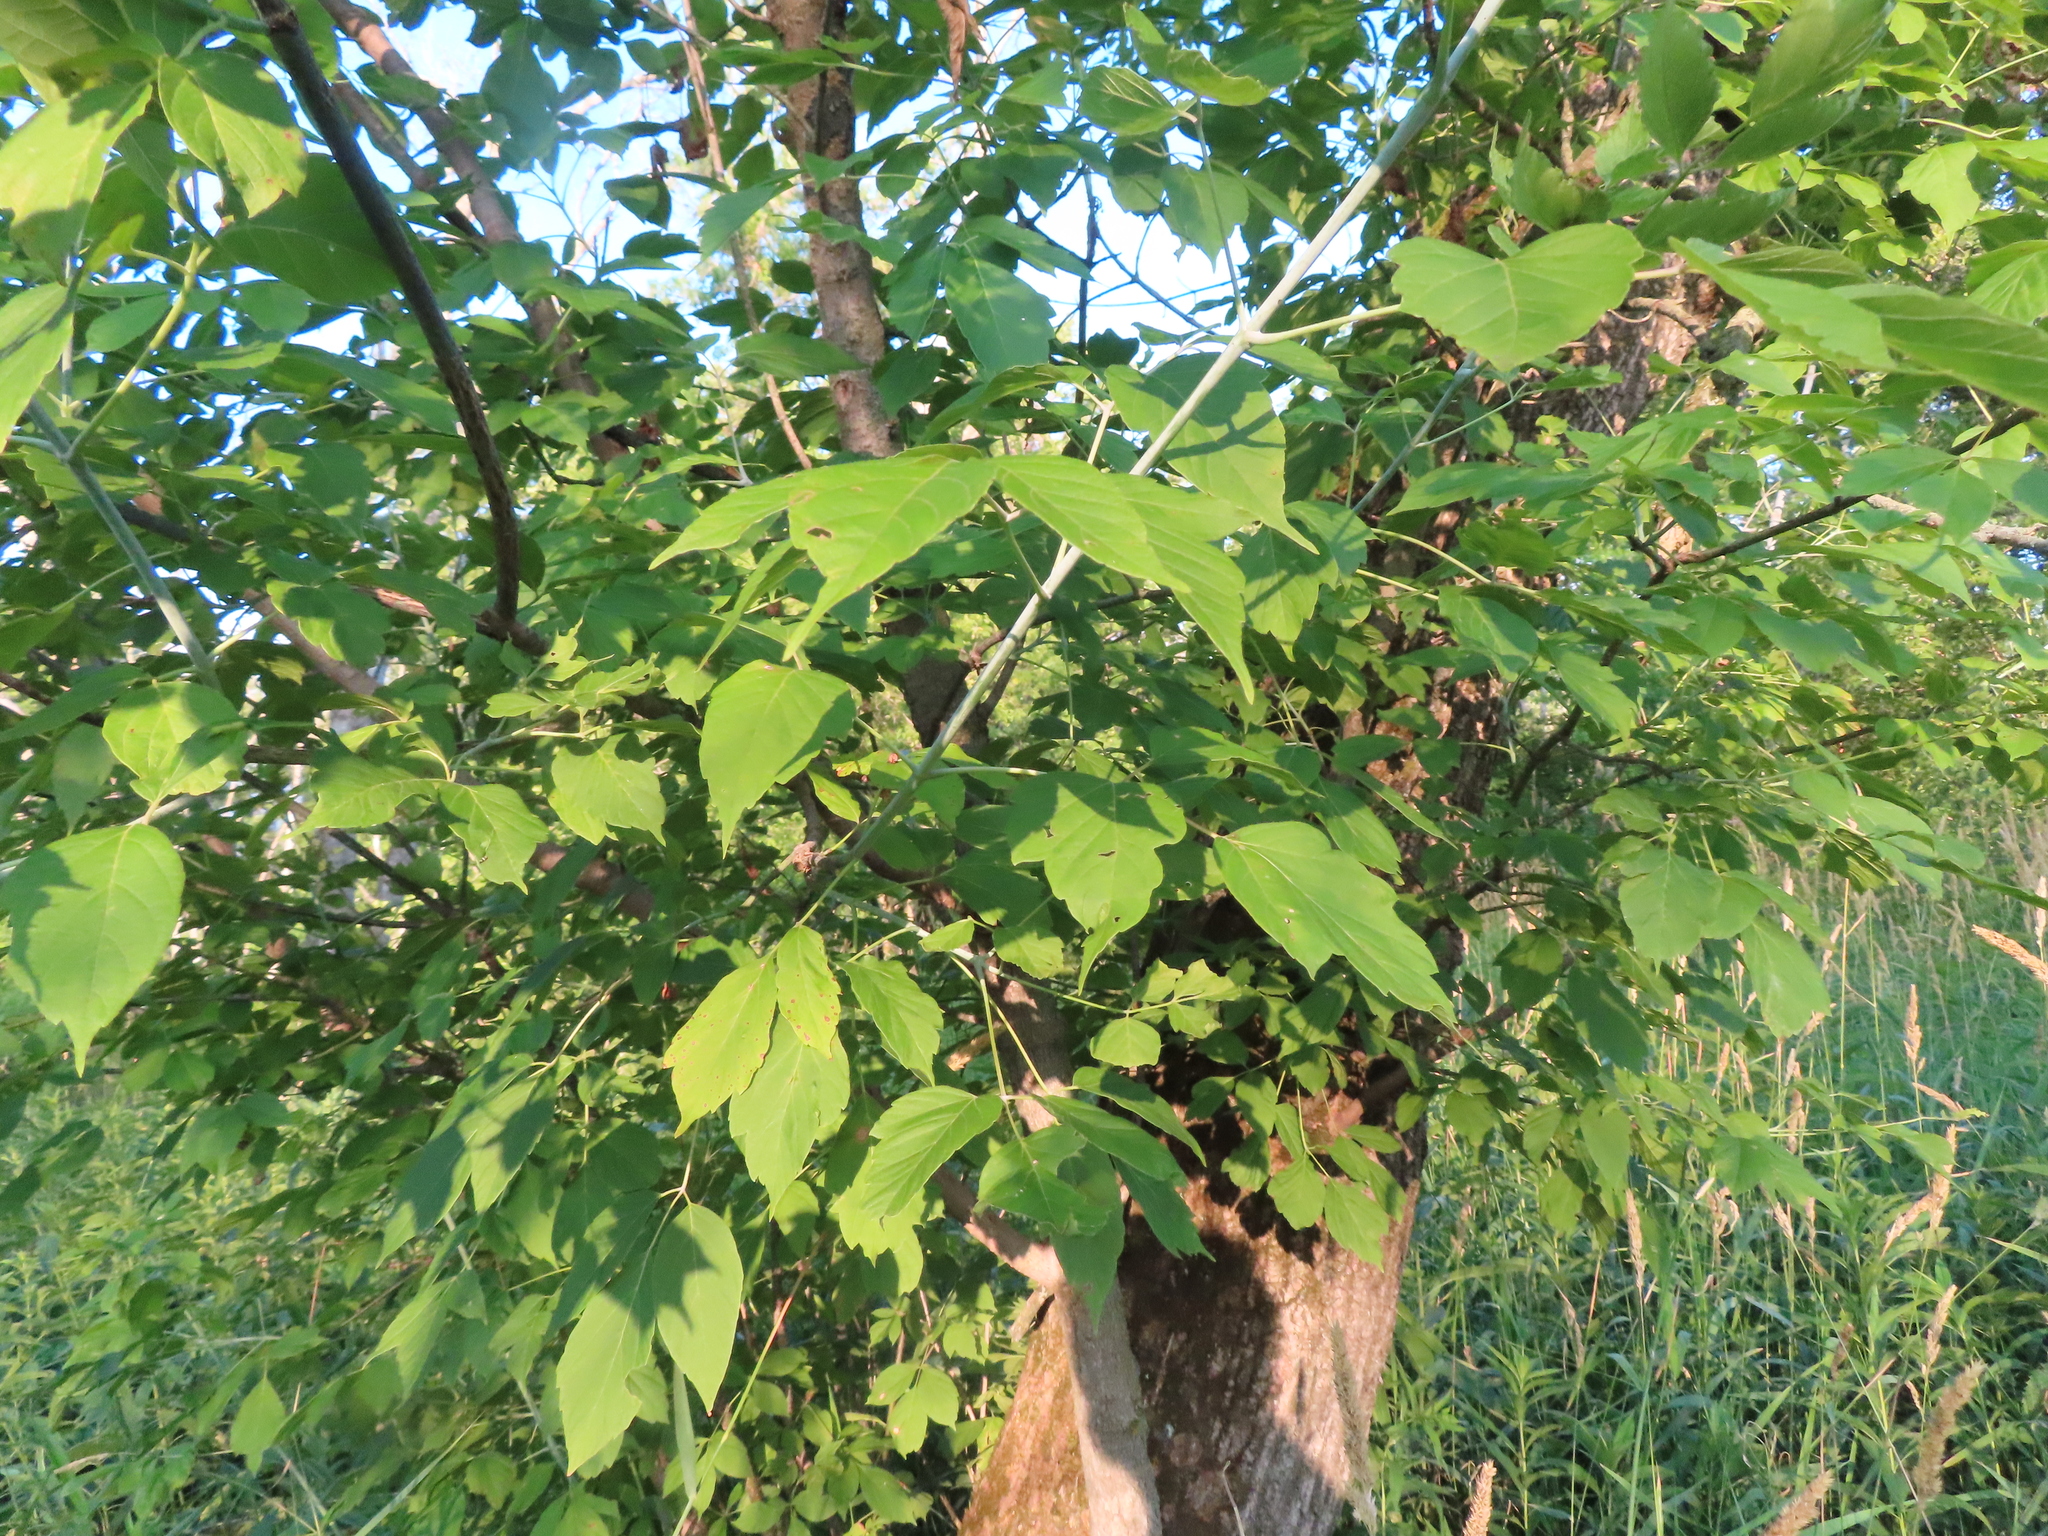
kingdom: Plantae
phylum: Tracheophyta
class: Magnoliopsida
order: Sapindales
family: Sapindaceae
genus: Acer
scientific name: Acer negundo
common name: Ashleaf maple
